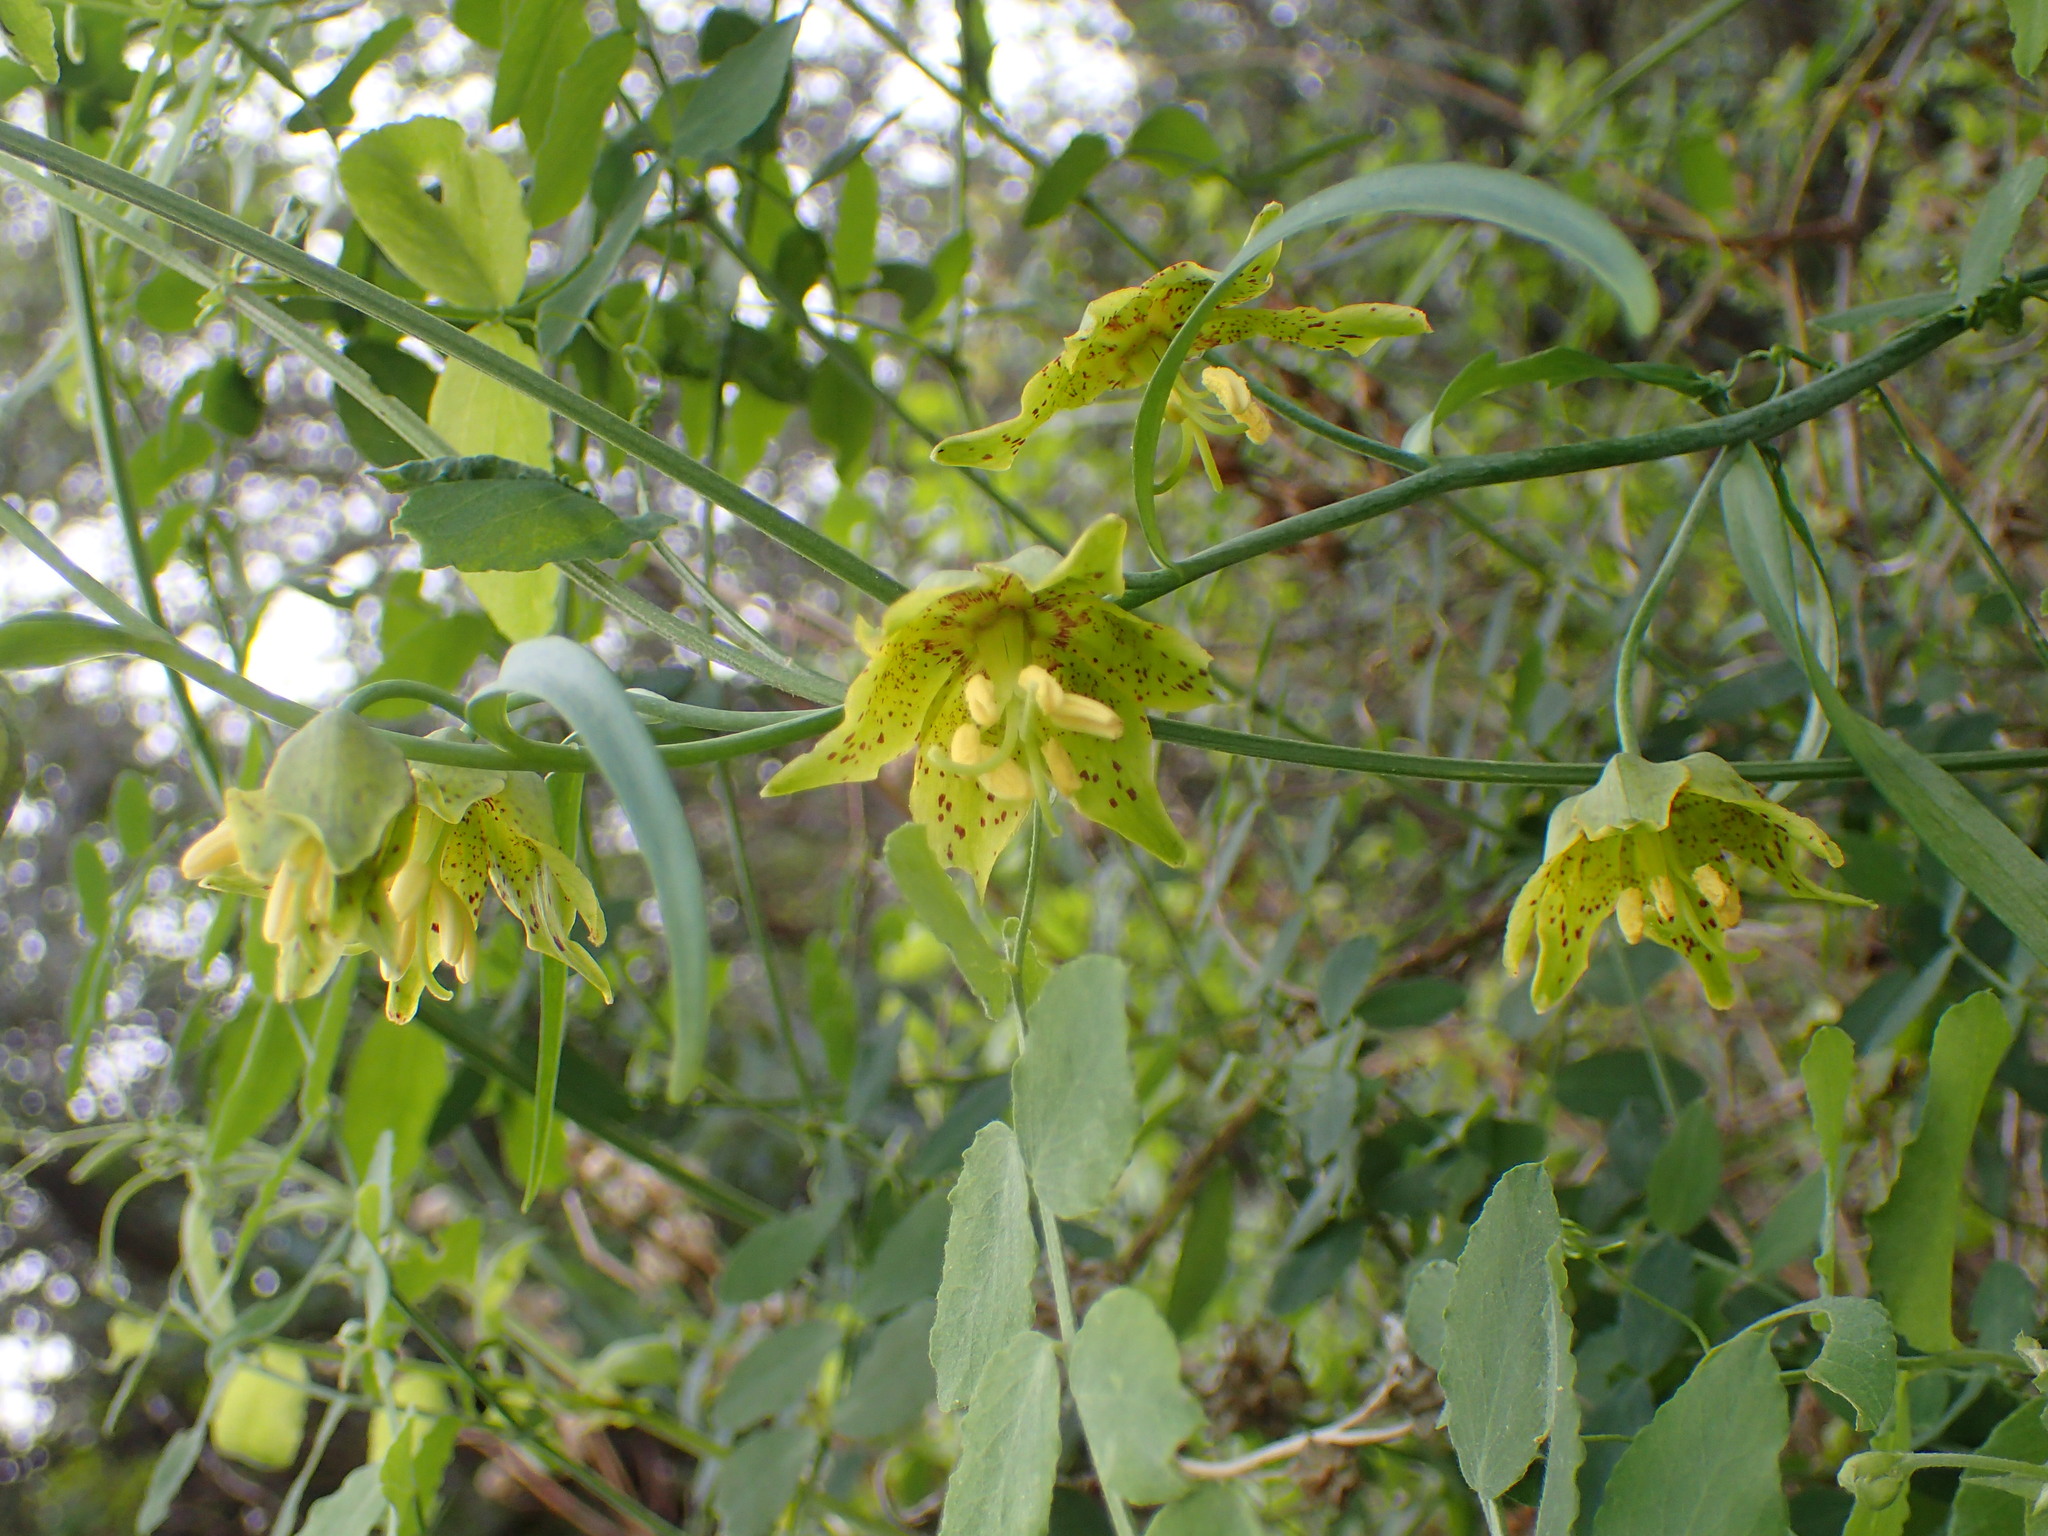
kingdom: Plantae
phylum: Tracheophyta
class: Liliopsida
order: Liliales
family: Liliaceae
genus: Fritillaria
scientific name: Fritillaria ojaiensis
